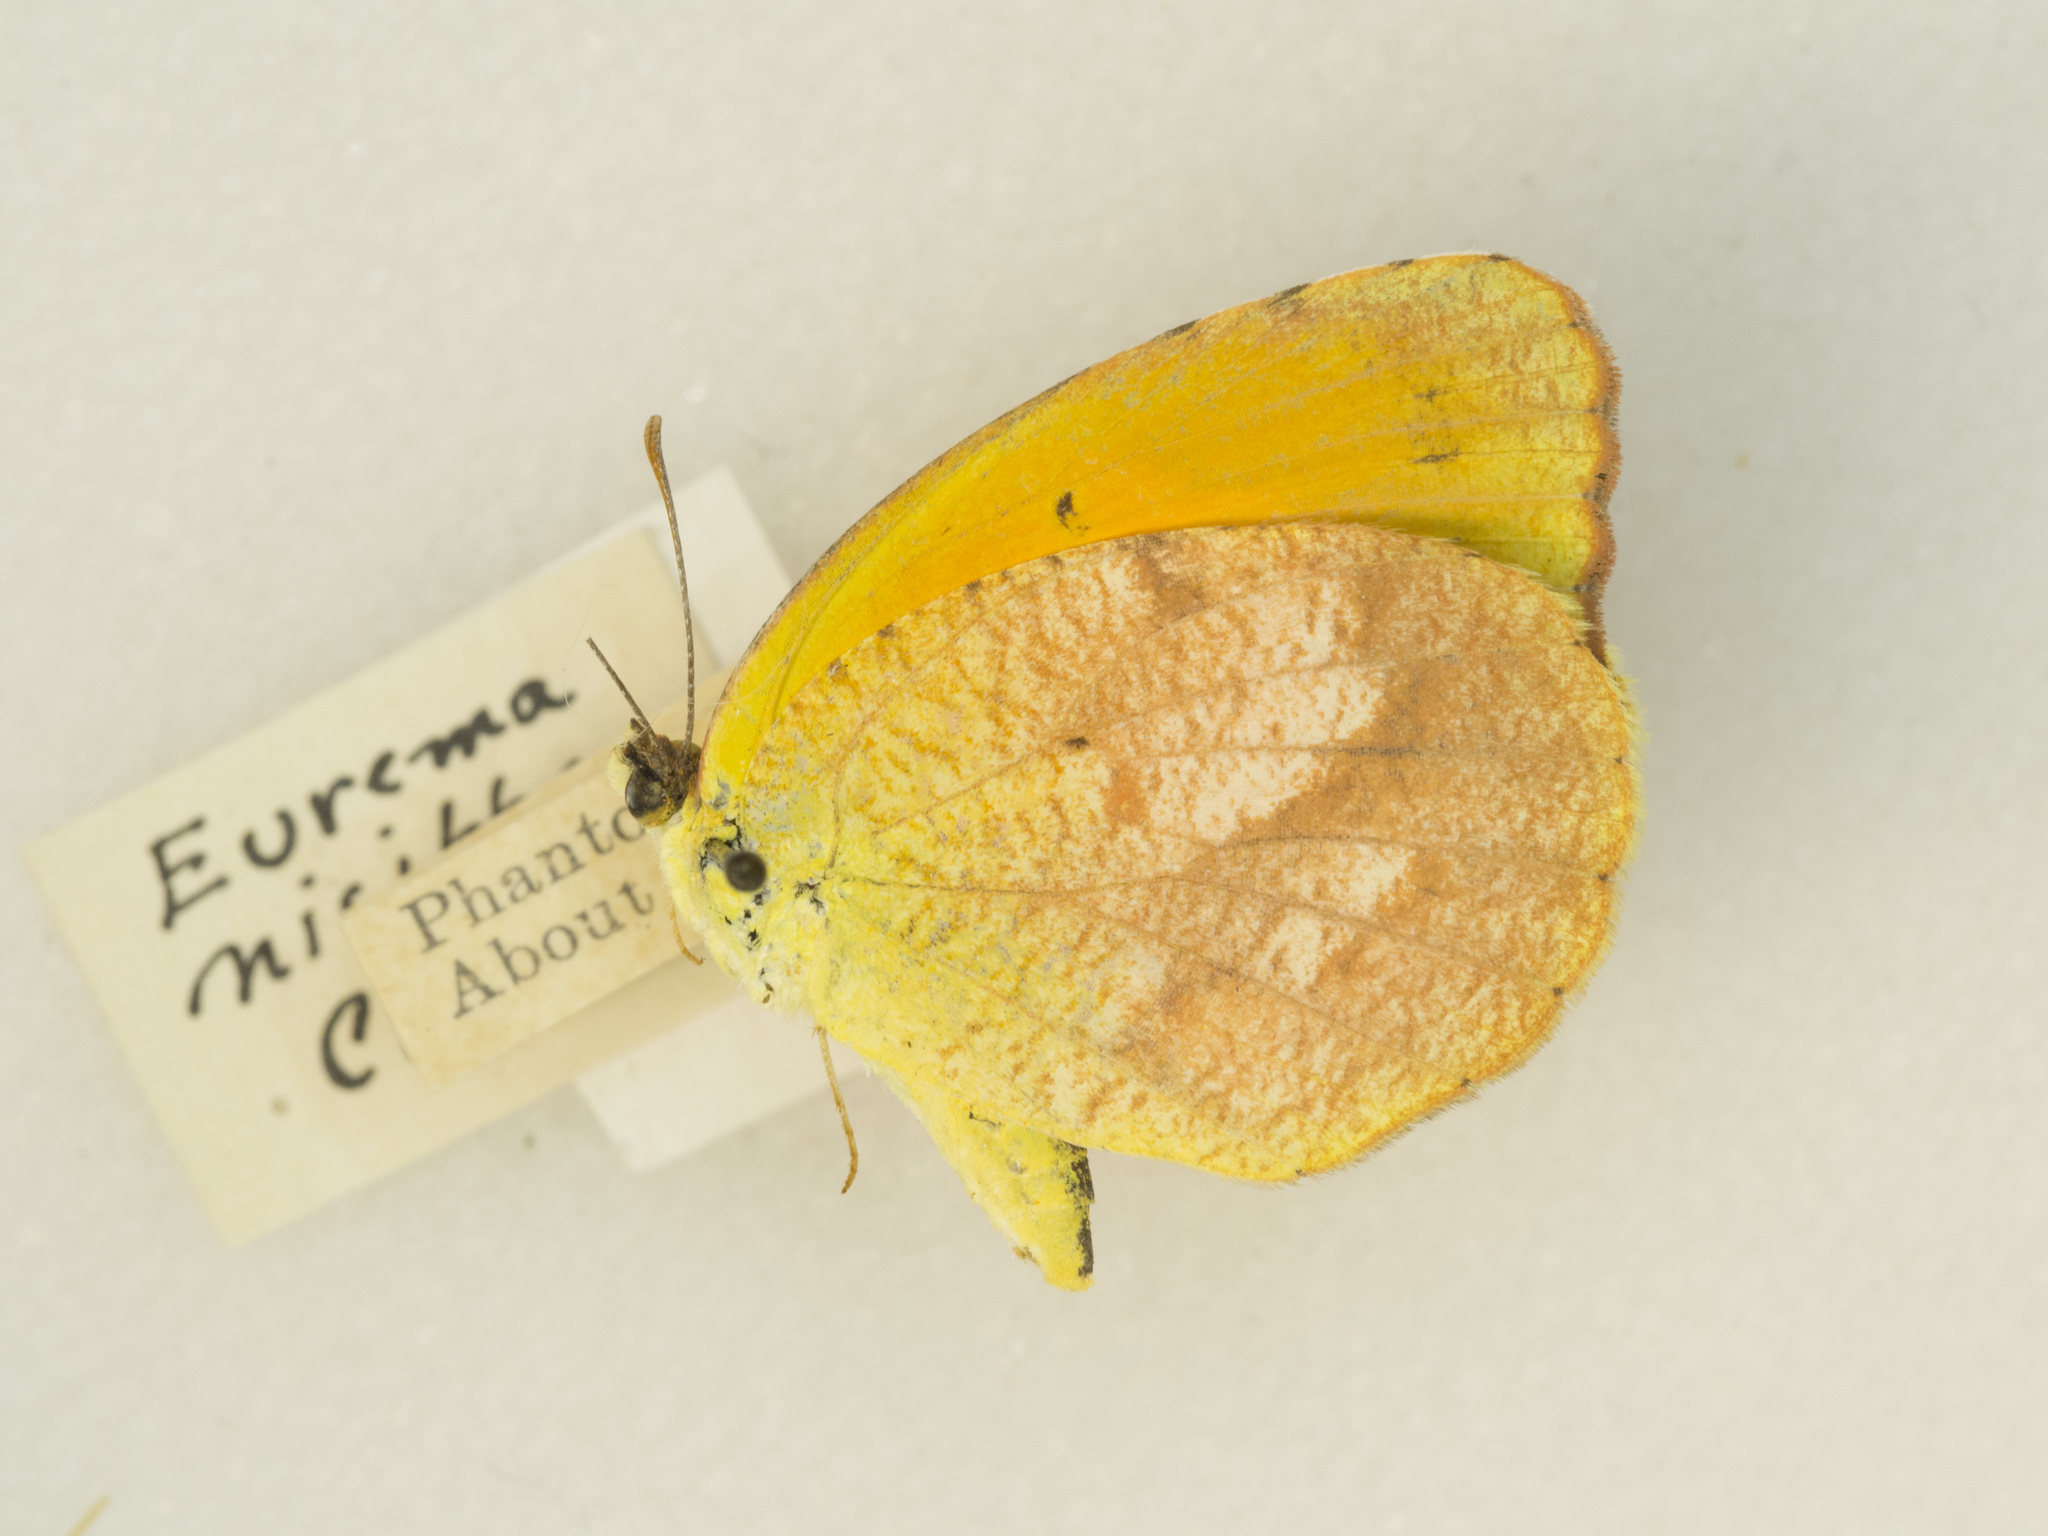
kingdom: Animalia
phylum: Arthropoda
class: Insecta
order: Lepidoptera
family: Pieridae
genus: Abaeis
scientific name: Abaeis nicippe
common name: Sleepy orange
